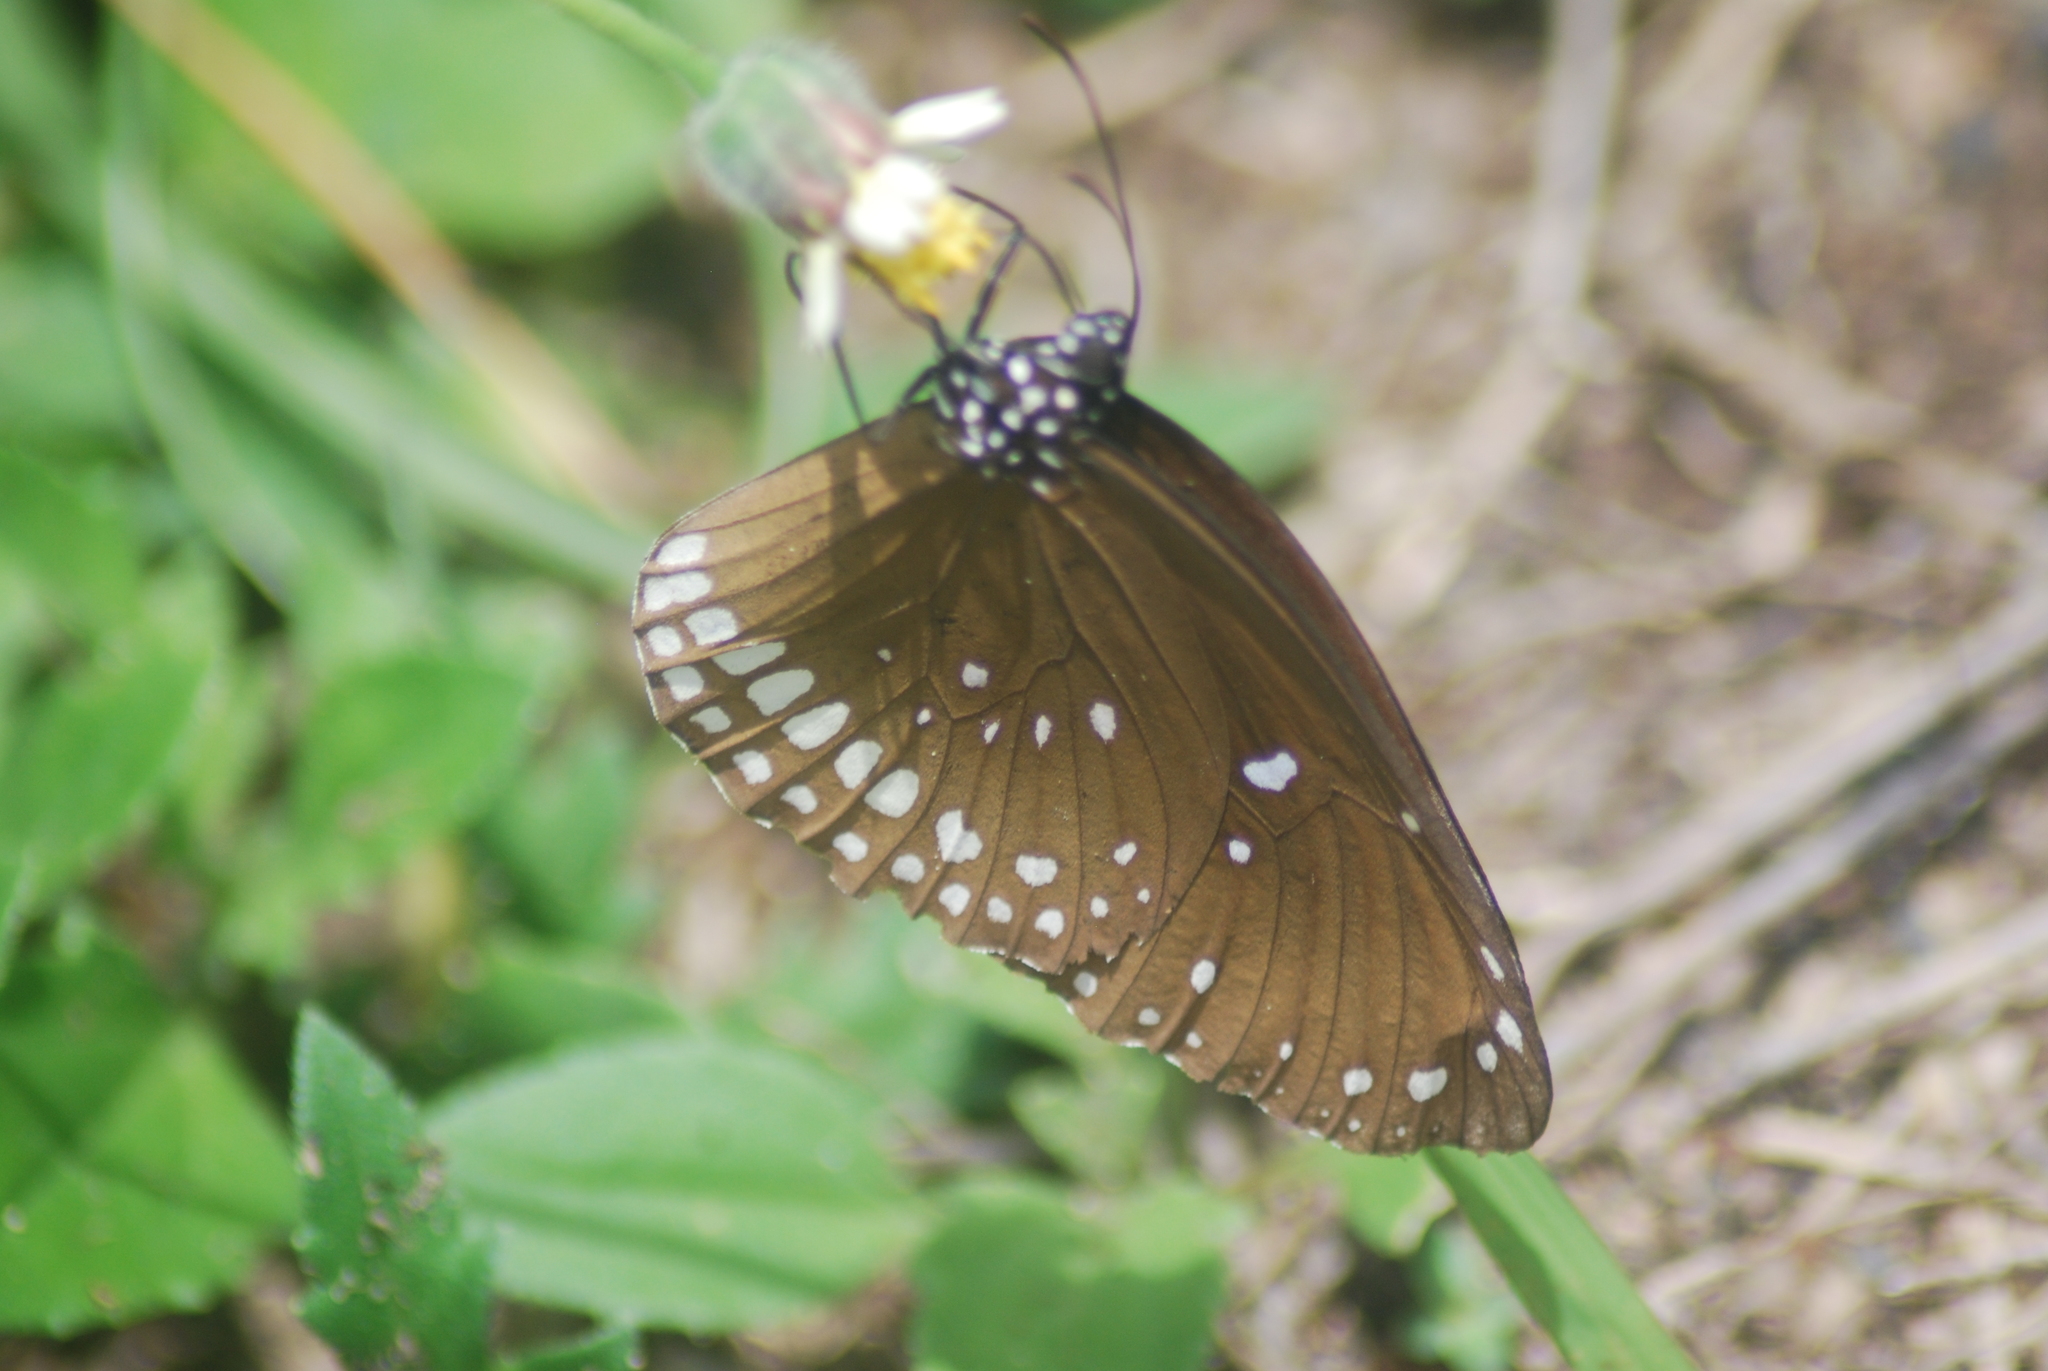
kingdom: Animalia
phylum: Arthropoda
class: Insecta
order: Lepidoptera
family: Nymphalidae
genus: Euploea
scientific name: Euploea core
